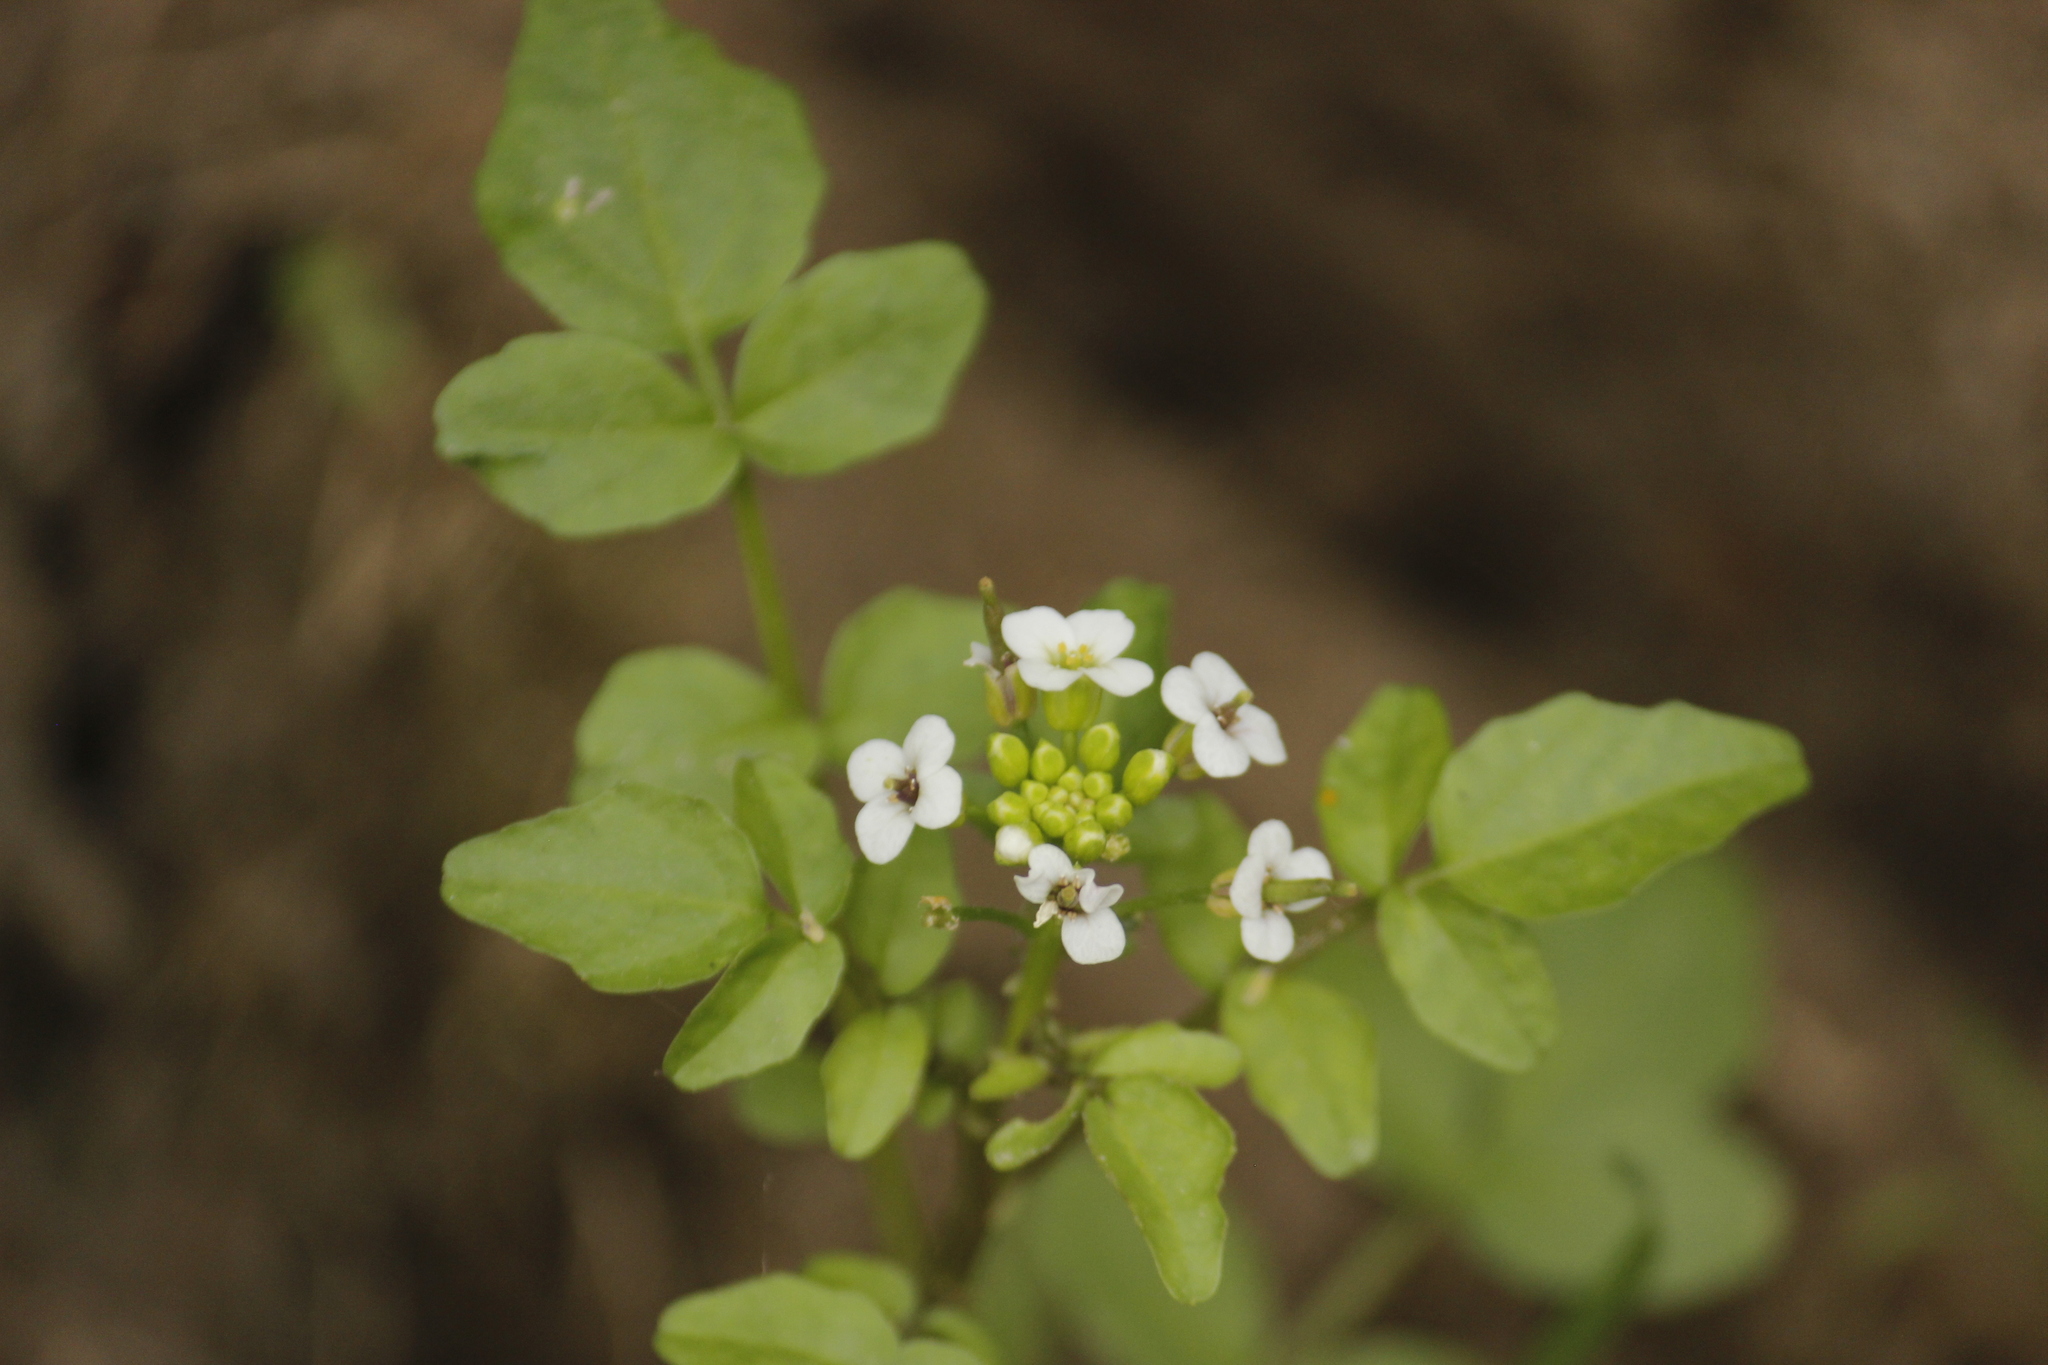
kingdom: Plantae
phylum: Tracheophyta
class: Magnoliopsida
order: Brassicales
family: Brassicaceae
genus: Nasturtium
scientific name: Nasturtium officinale
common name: Watercress
